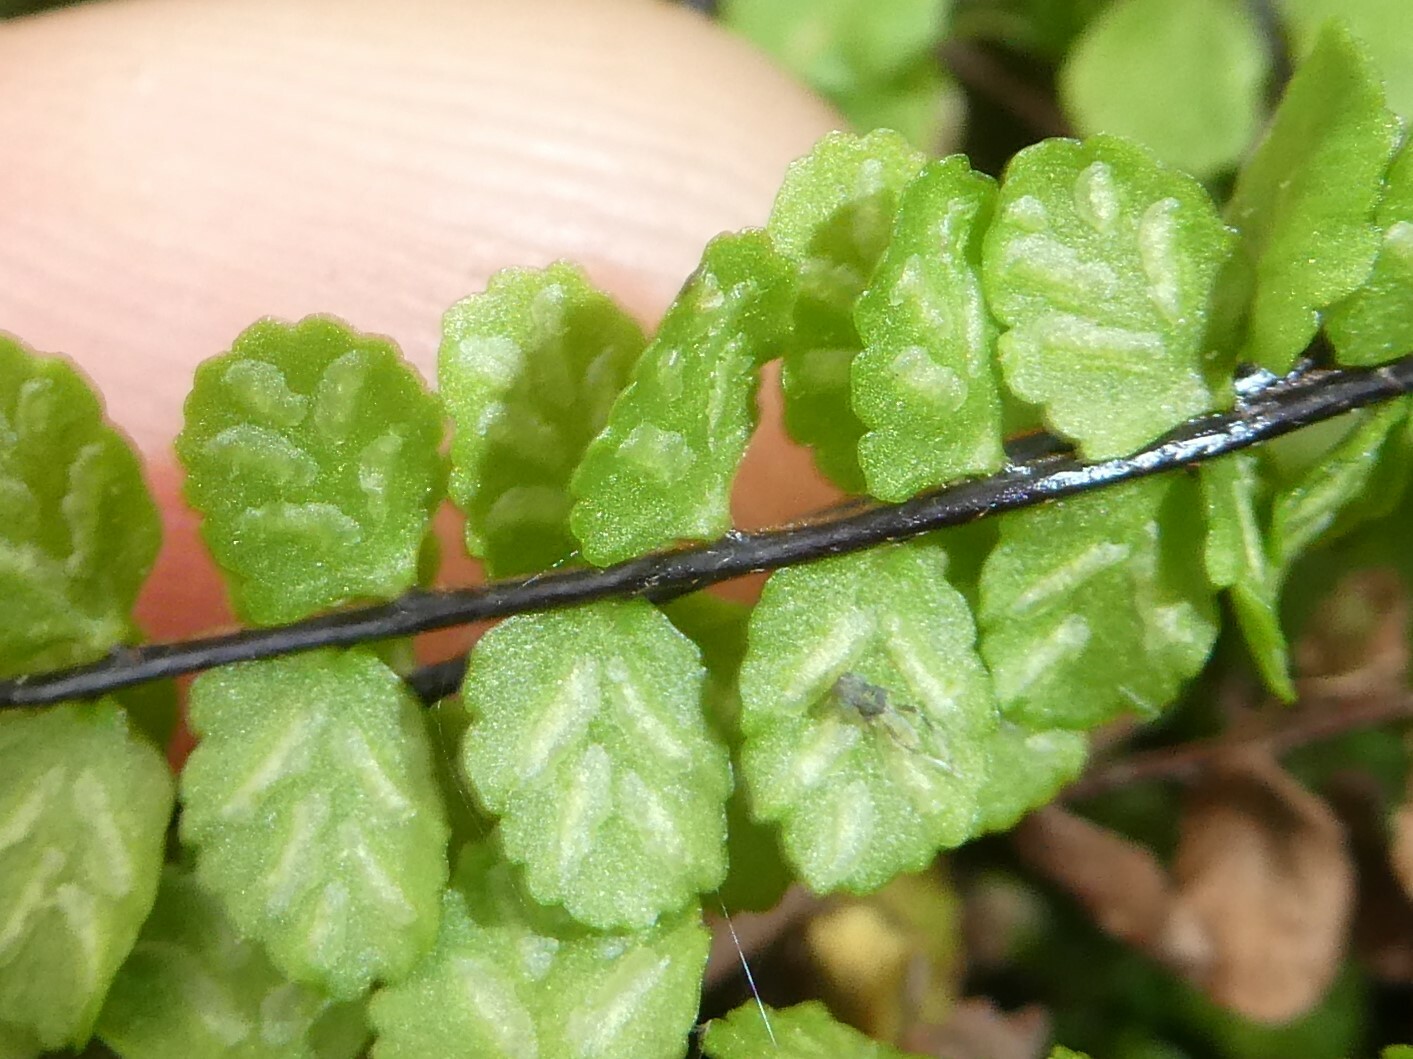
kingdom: Plantae
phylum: Tracheophyta
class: Polypodiopsida
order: Polypodiales
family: Aspleniaceae
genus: Asplenium
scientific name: Asplenium trichomanes
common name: Maidenhair spleenwort
